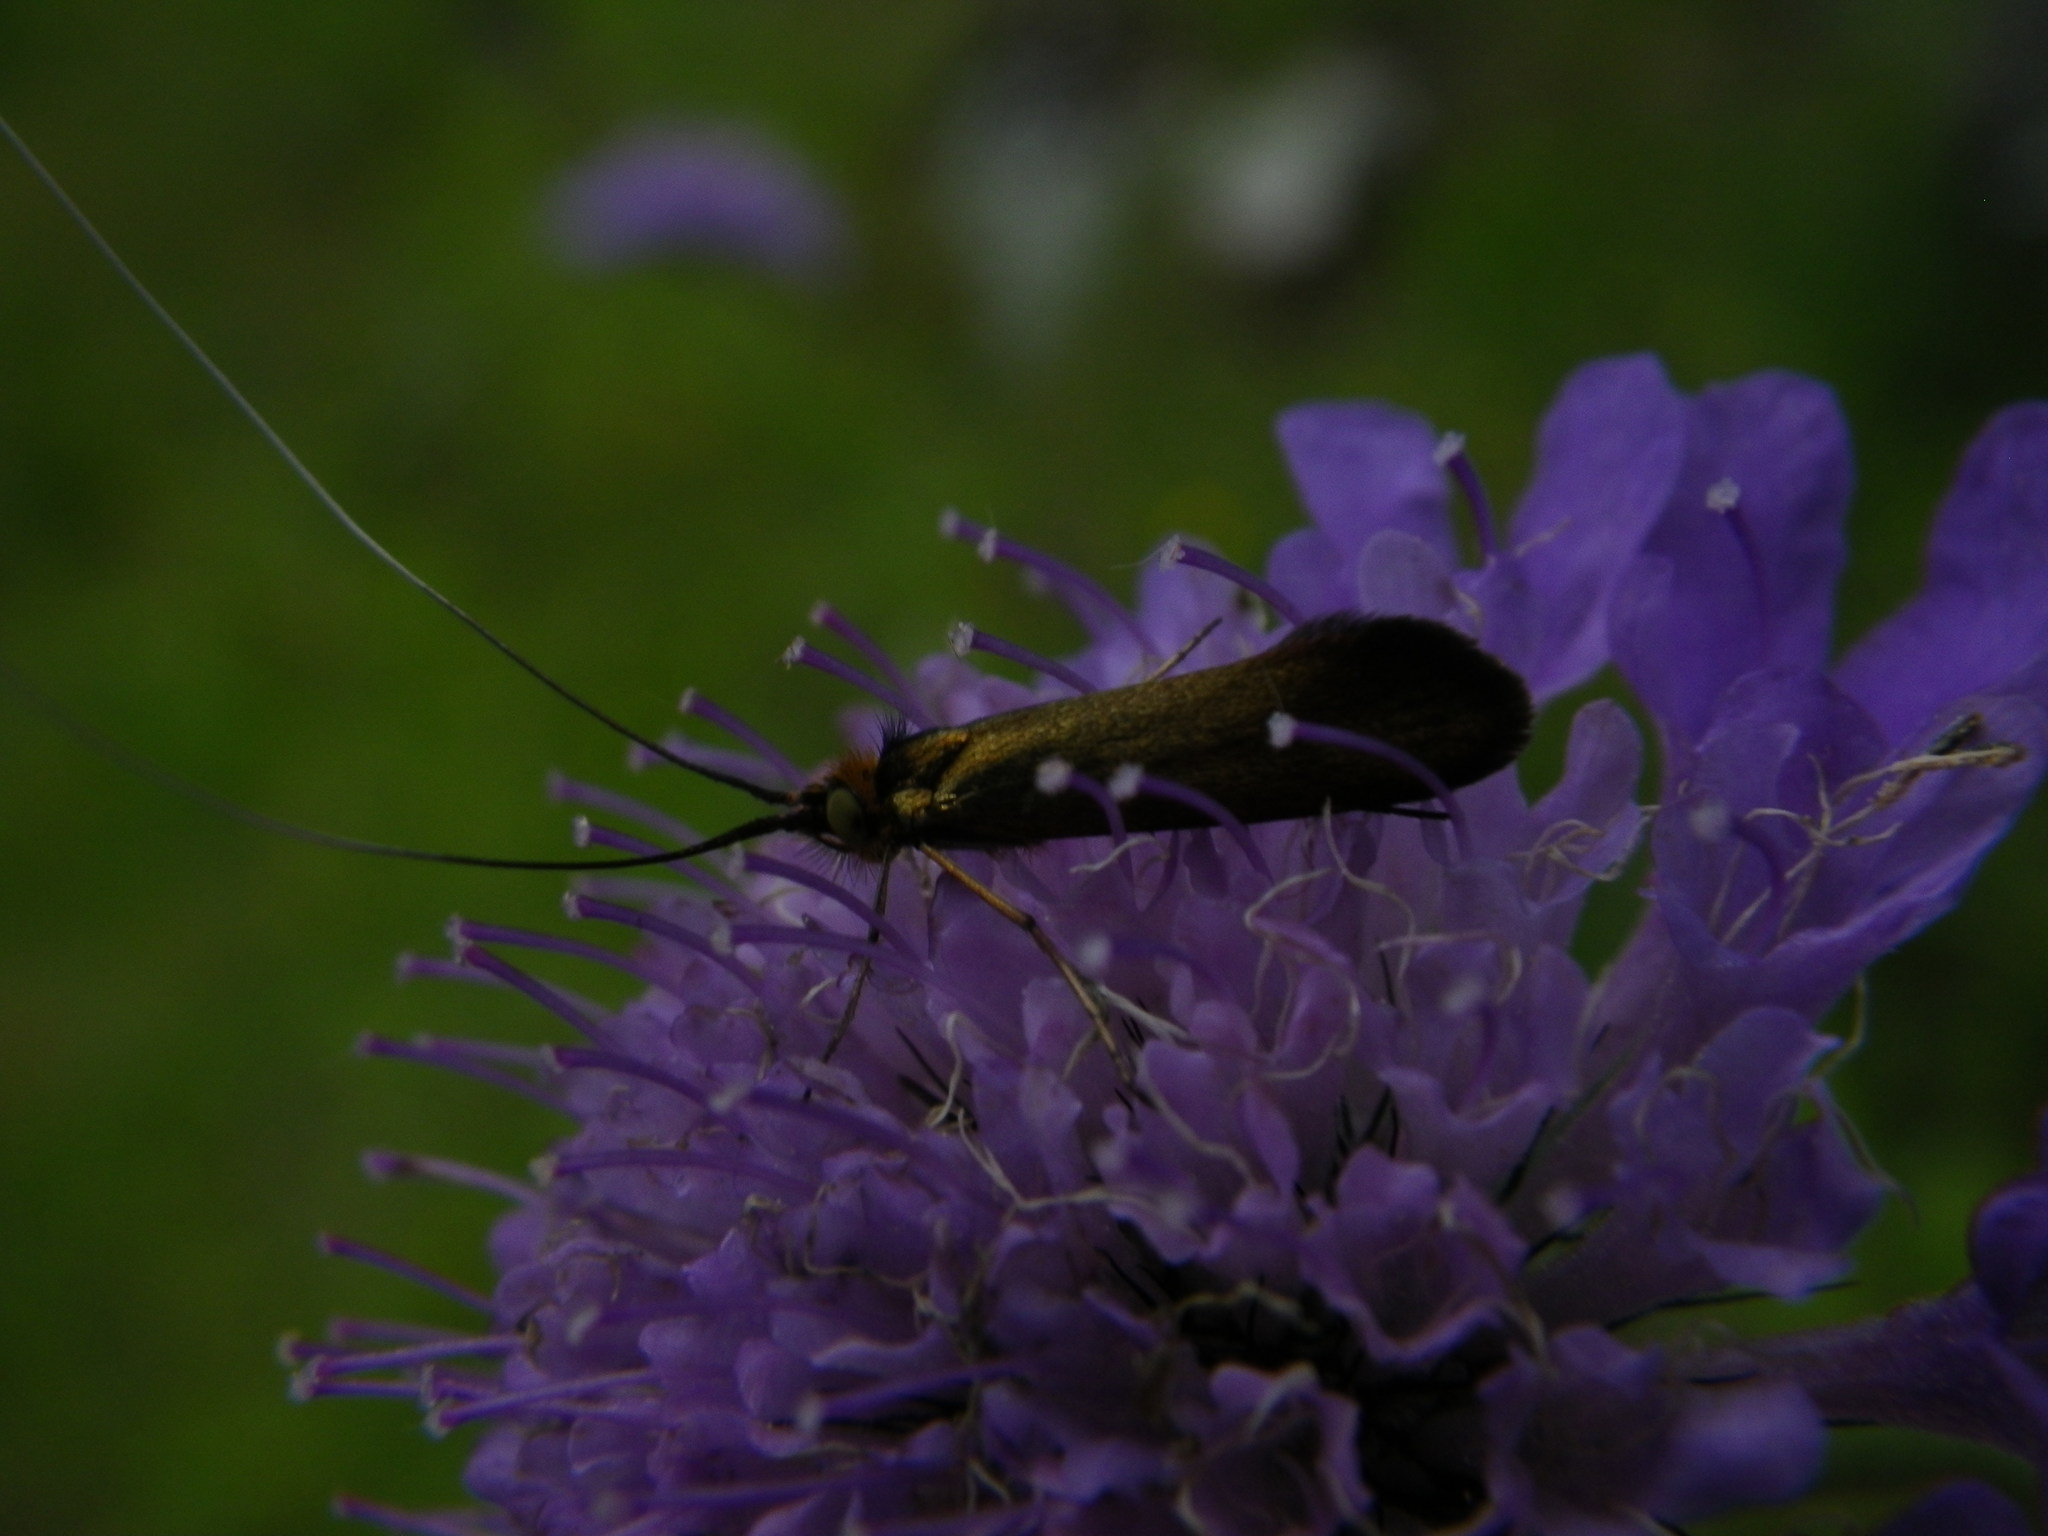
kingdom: Animalia
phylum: Arthropoda
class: Insecta
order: Lepidoptera
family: Adelidae
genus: Nemophora
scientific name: Nemophora metallica
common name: Brassy long-horn
